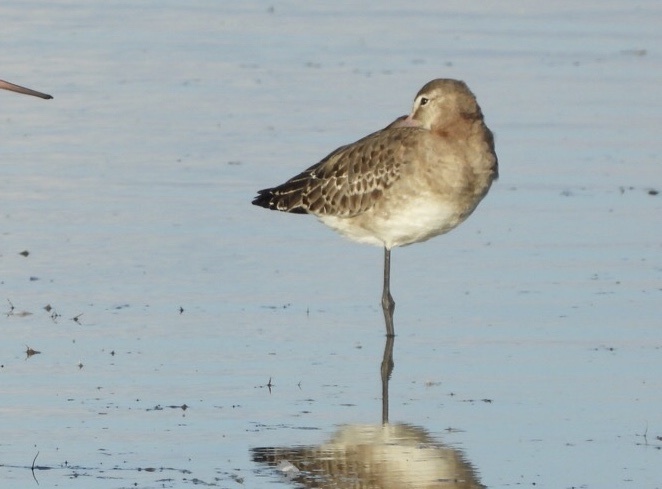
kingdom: Animalia
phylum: Chordata
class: Aves
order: Charadriiformes
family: Scolopacidae
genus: Limosa
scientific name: Limosa limosa
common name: Black-tailed godwit
